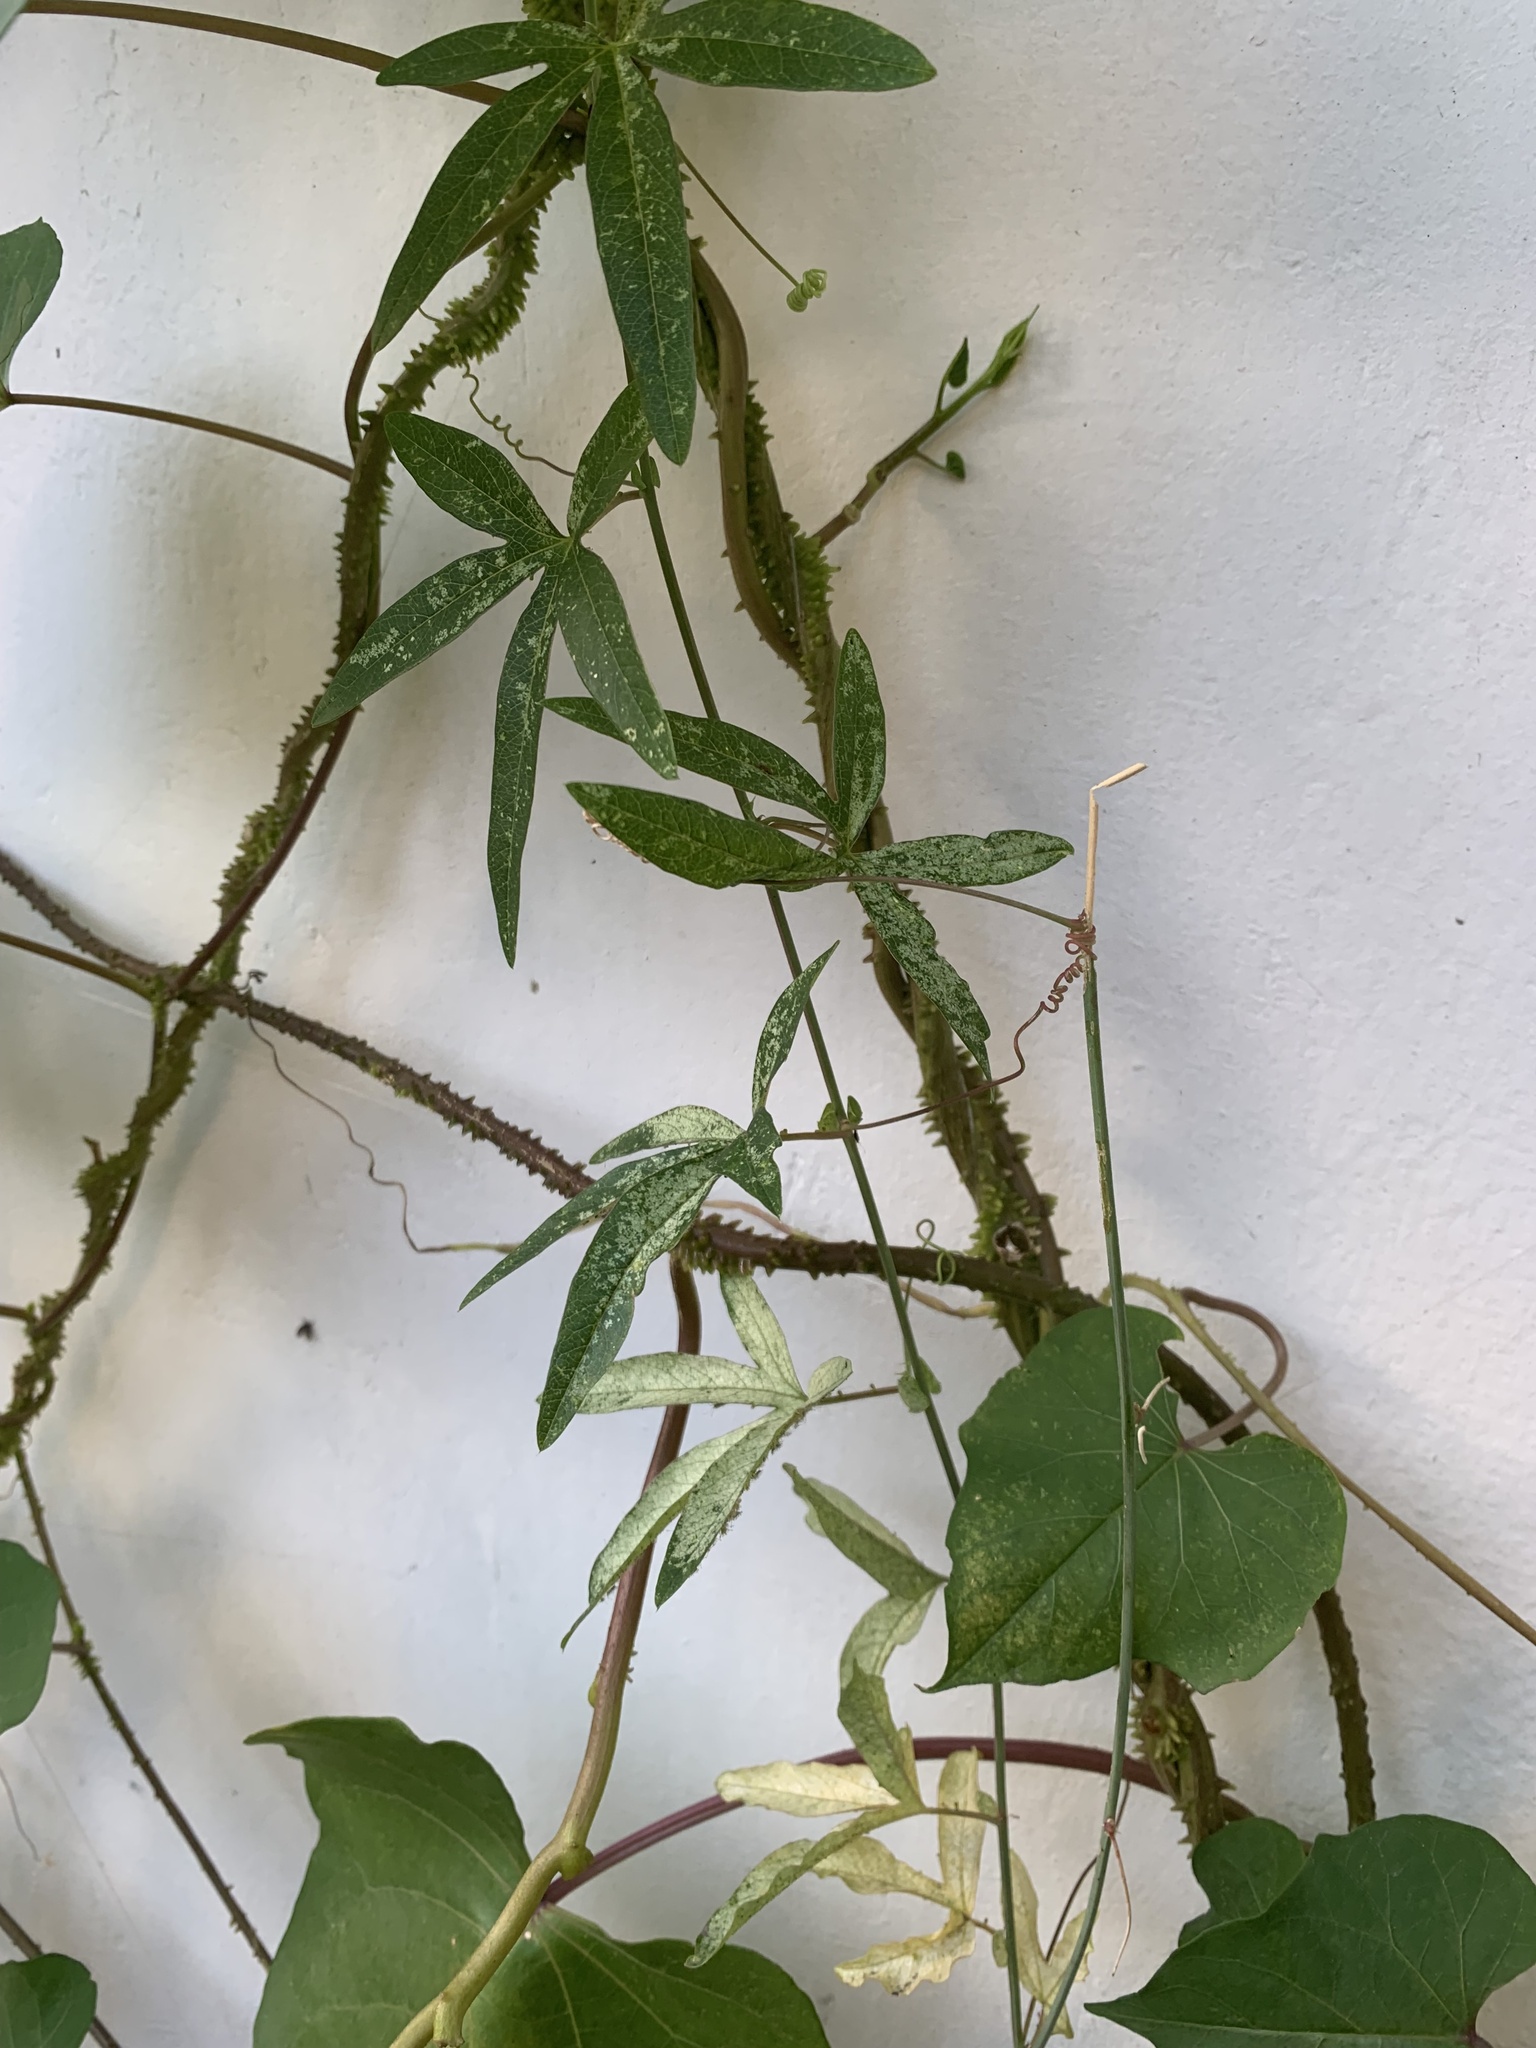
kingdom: Plantae
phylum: Tracheophyta
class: Magnoliopsida
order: Malpighiales
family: Passifloraceae
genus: Passiflora
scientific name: Passiflora caerulea
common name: Blue passionflower
